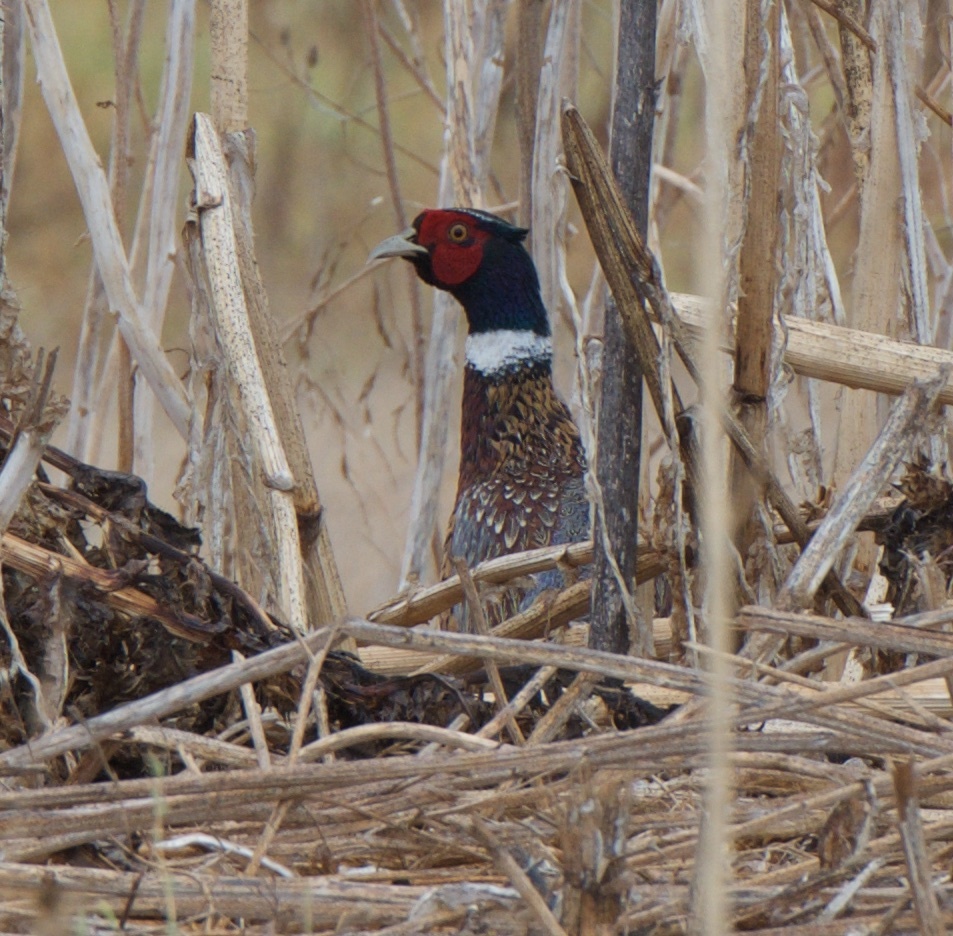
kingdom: Animalia
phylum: Chordata
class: Aves
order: Galliformes
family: Phasianidae
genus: Phasianus
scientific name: Phasianus colchicus
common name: Common pheasant
